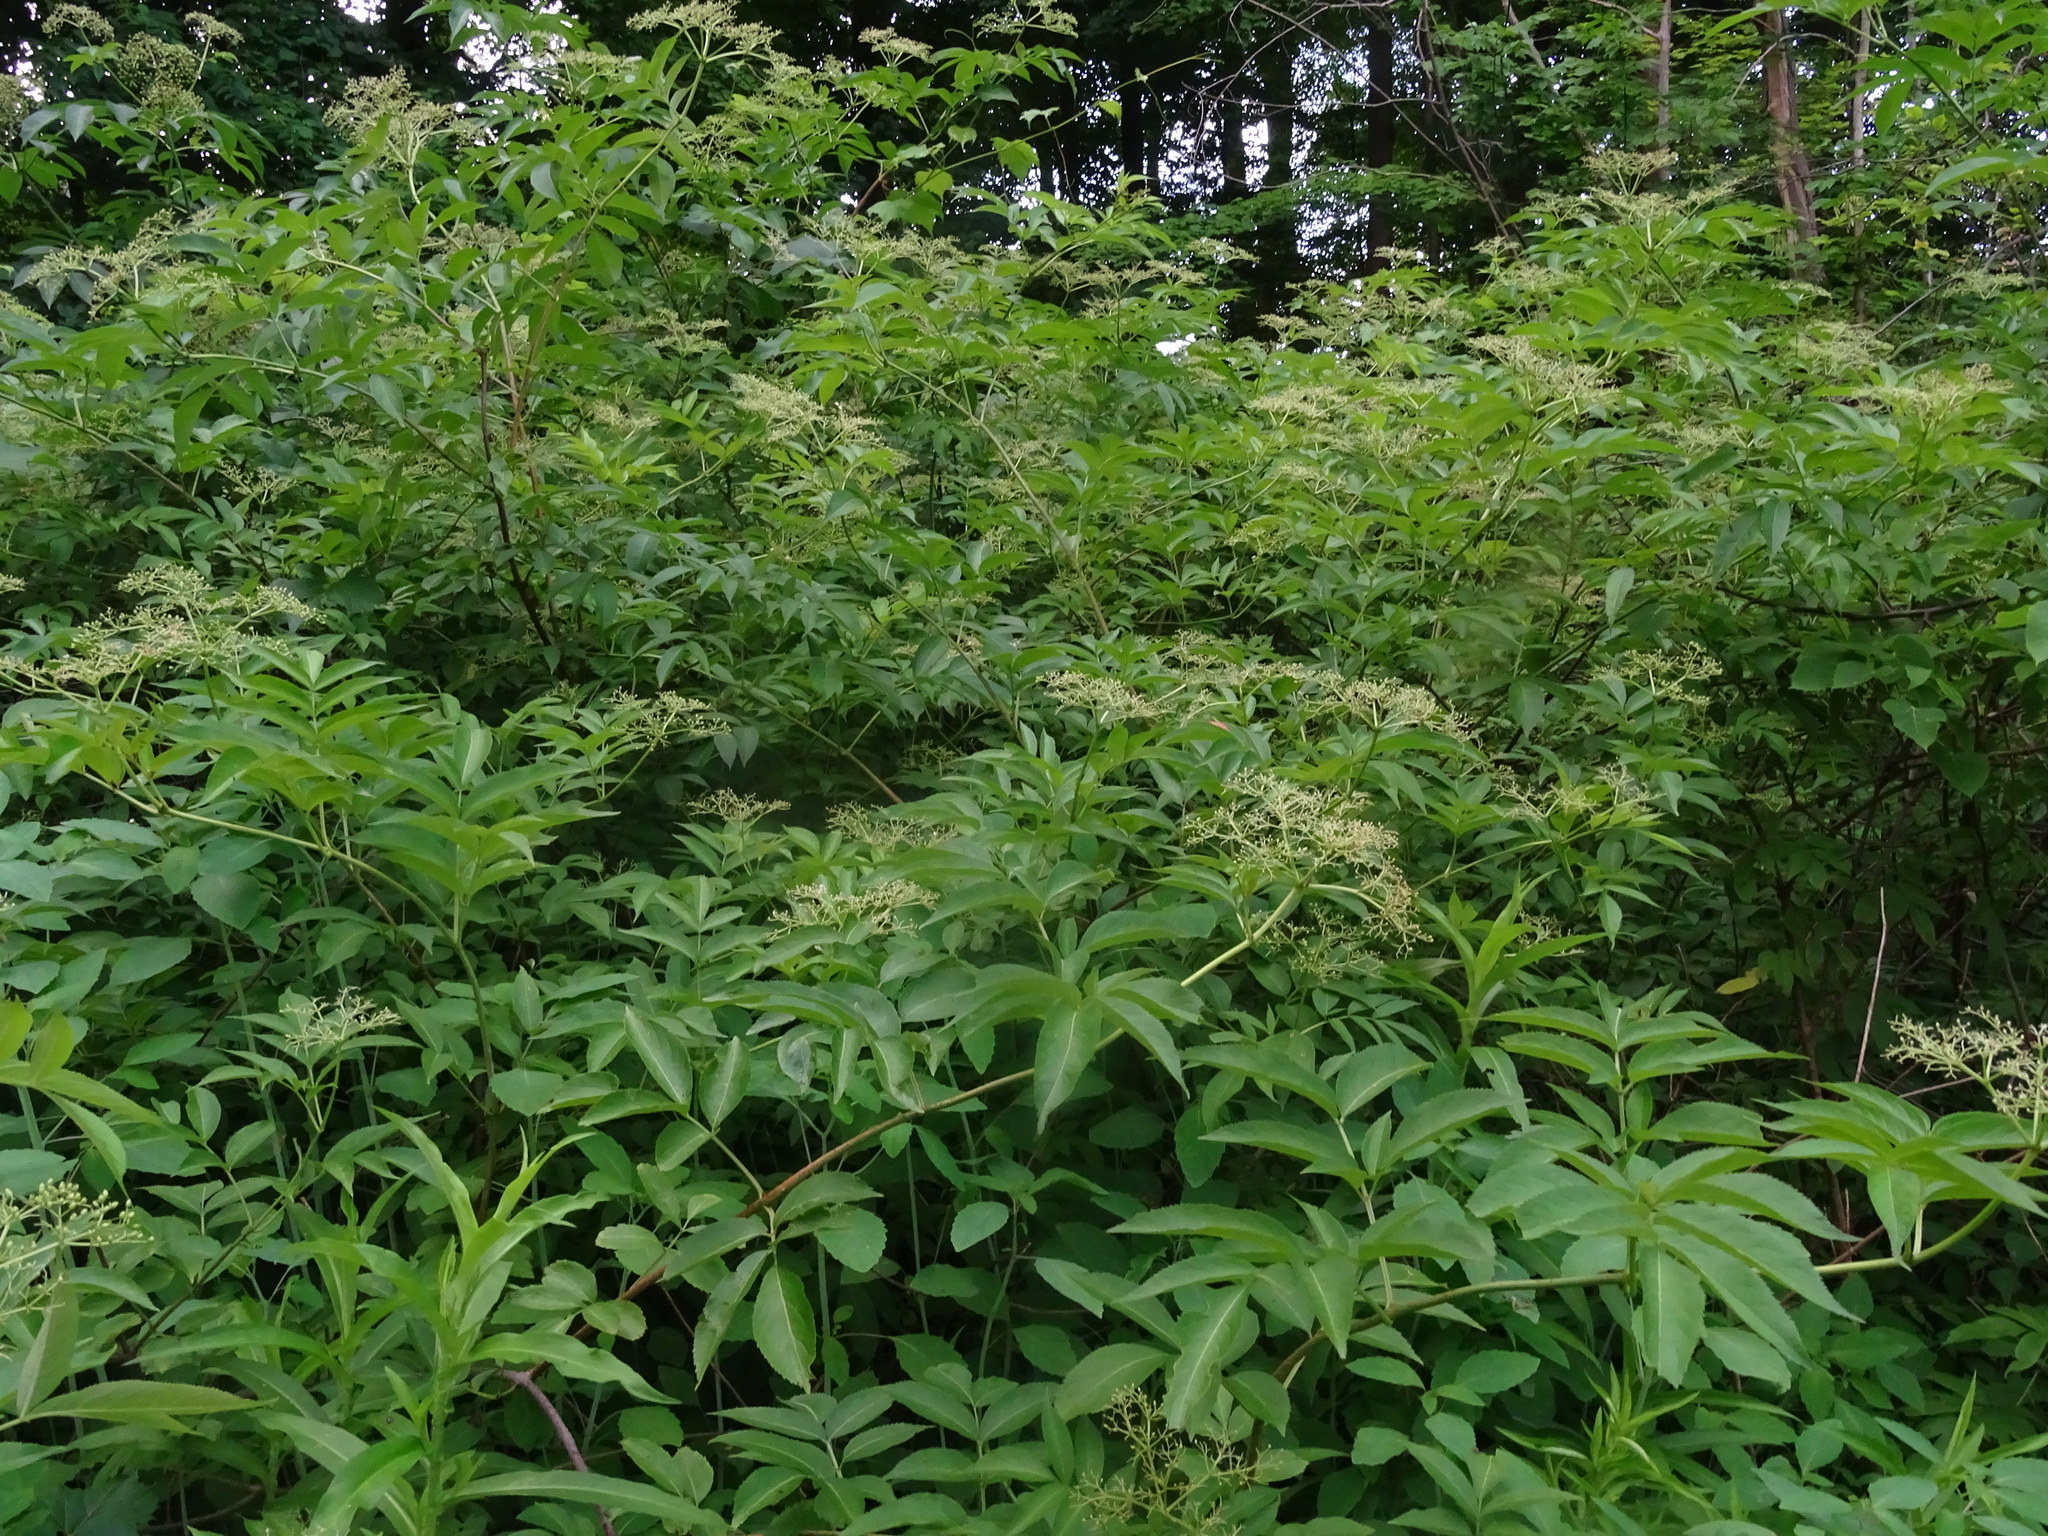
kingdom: Plantae
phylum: Tracheophyta
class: Magnoliopsida
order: Dipsacales
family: Viburnaceae
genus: Sambucus
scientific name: Sambucus canadensis
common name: American elder
